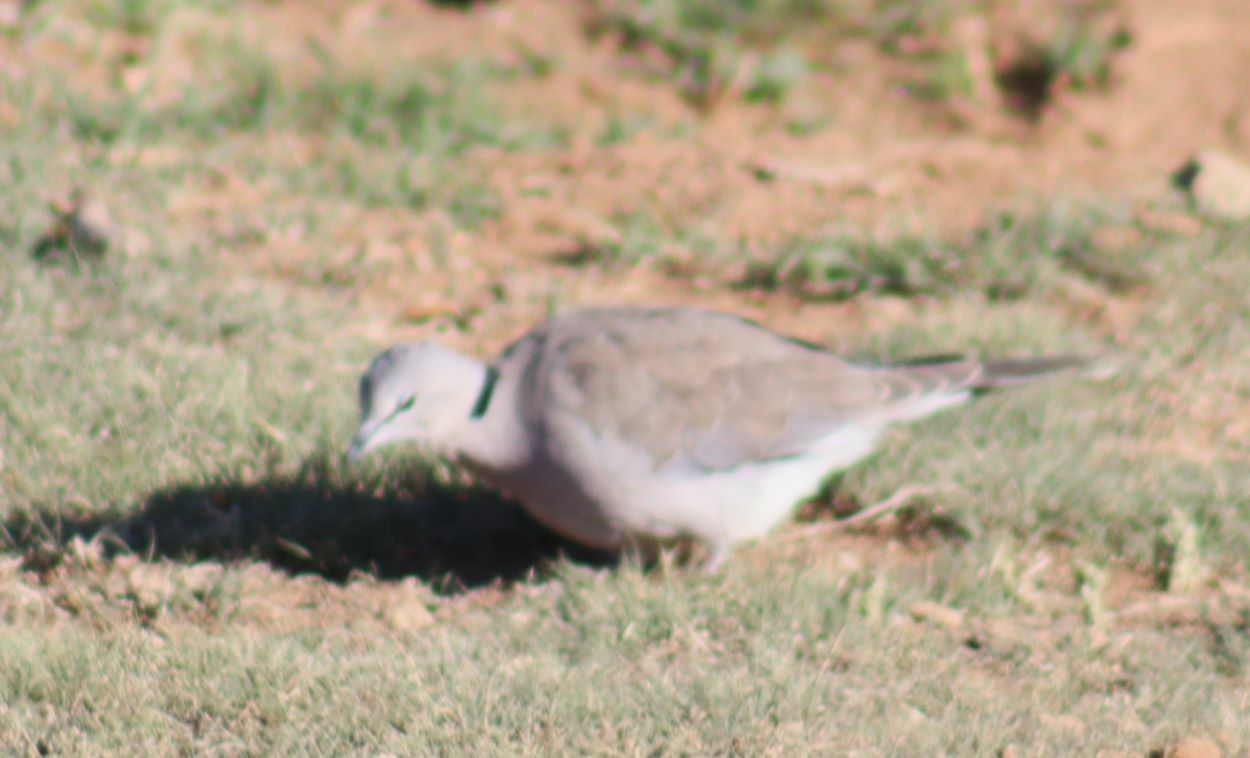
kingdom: Animalia
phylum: Chordata
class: Aves
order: Columbiformes
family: Columbidae
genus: Streptopelia
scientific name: Streptopelia capicola
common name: Ring-necked dove
